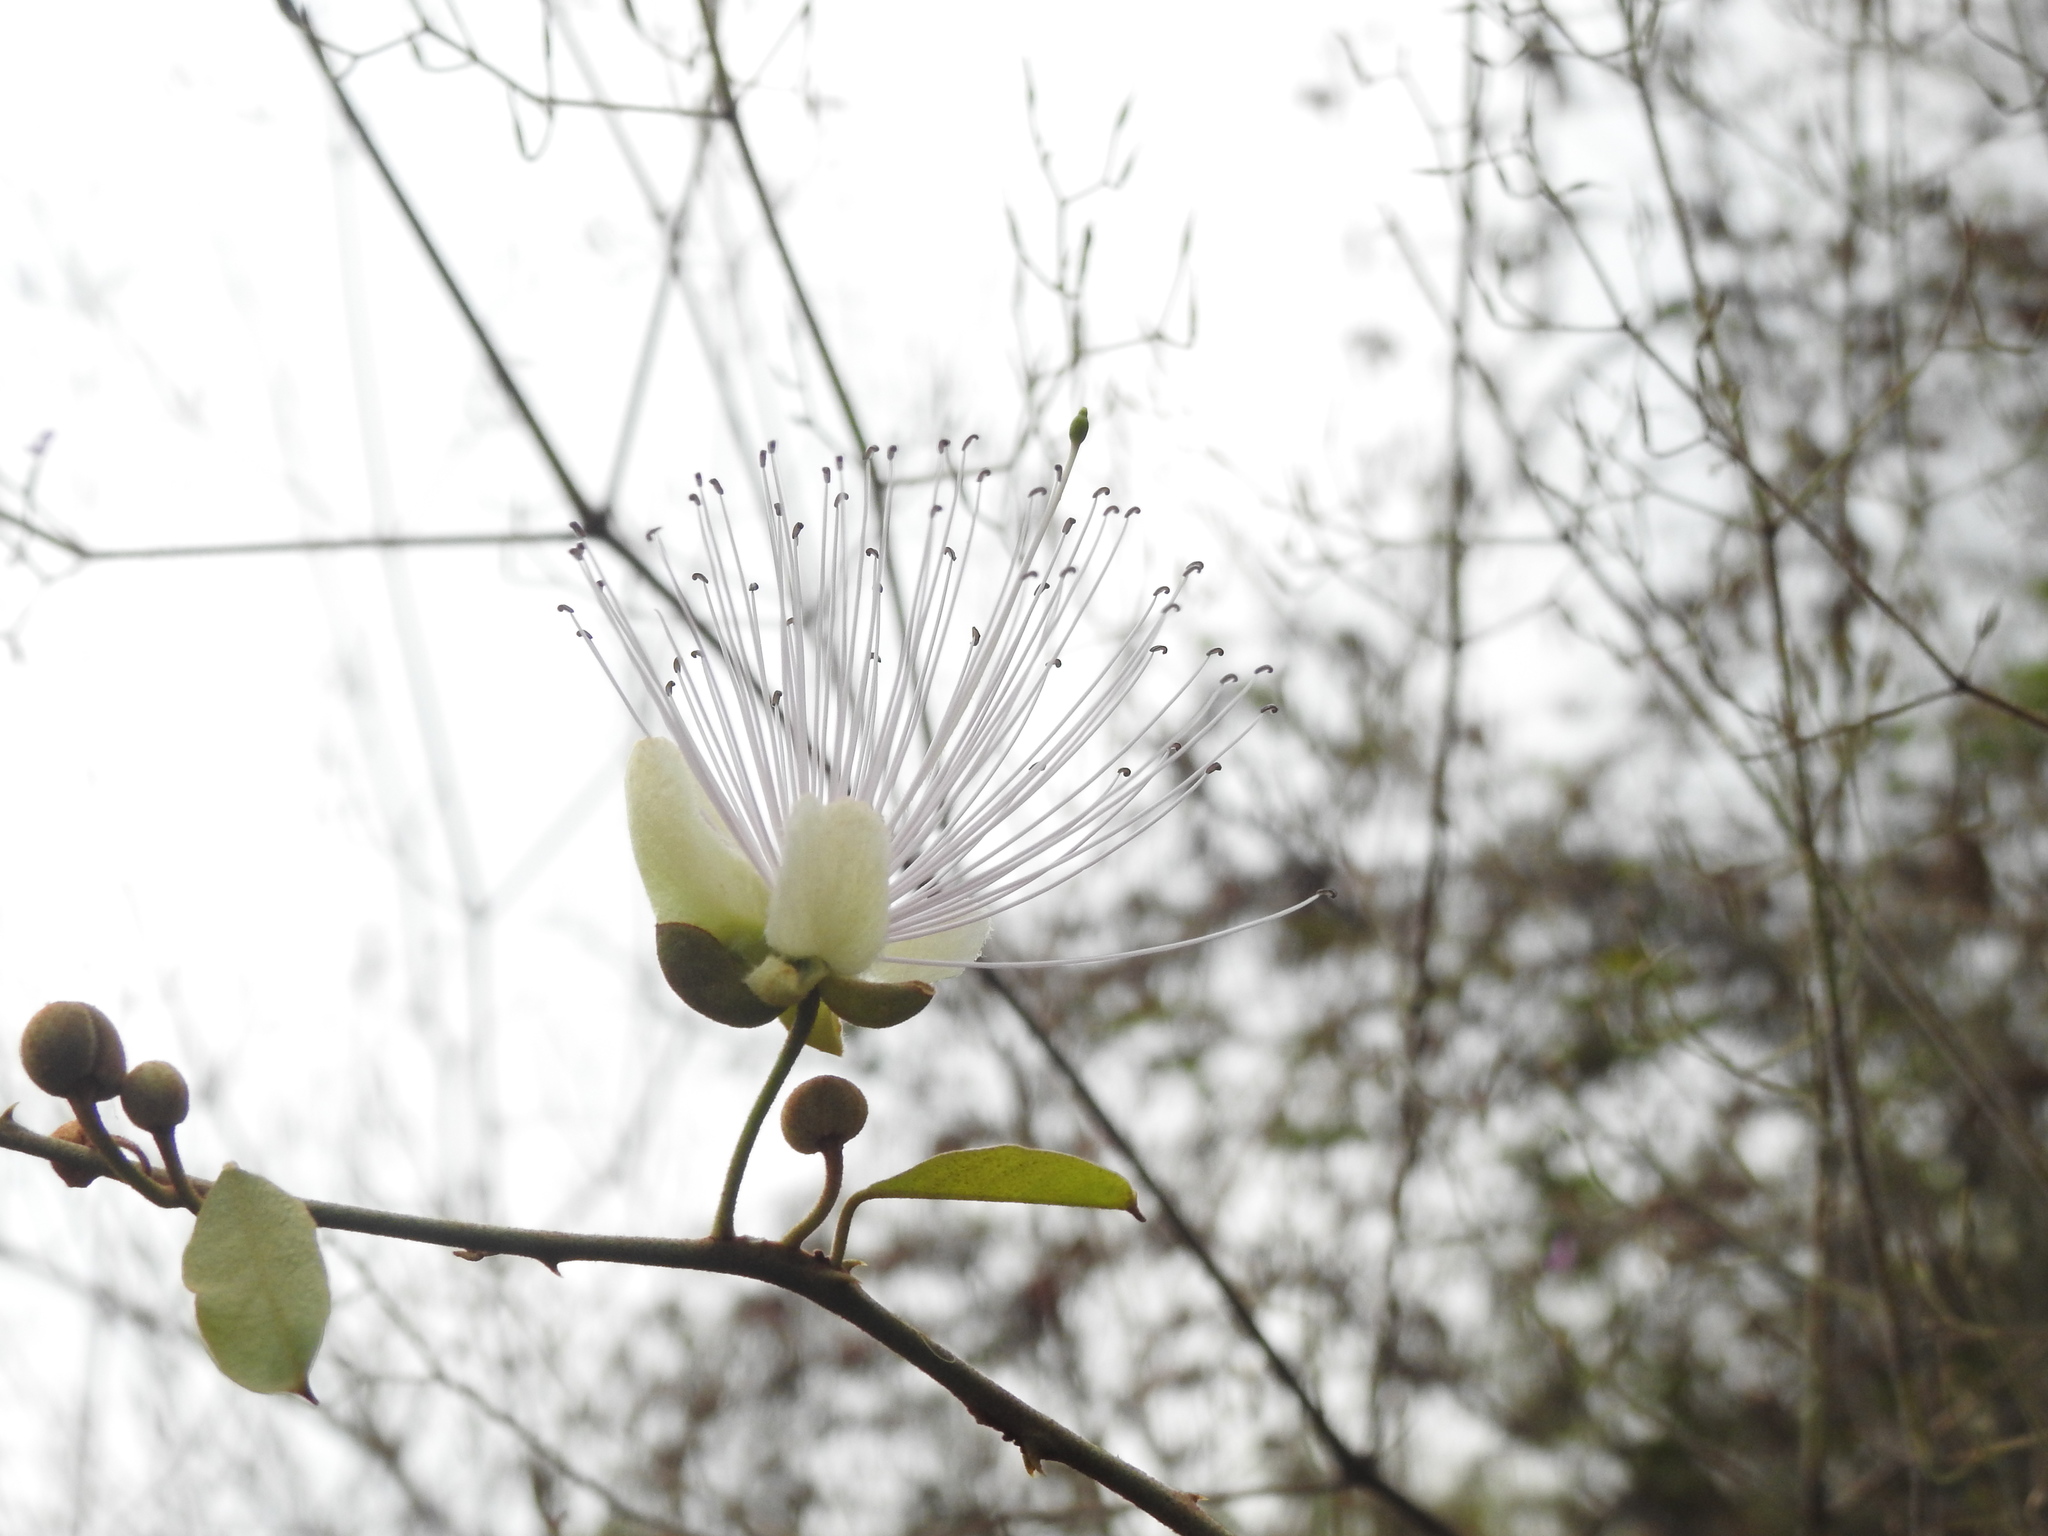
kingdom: Plantae
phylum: Tracheophyta
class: Magnoliopsida
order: Brassicales
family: Capparaceae
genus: Capparis
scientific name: Capparis zeylanica
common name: Ceylon caper
